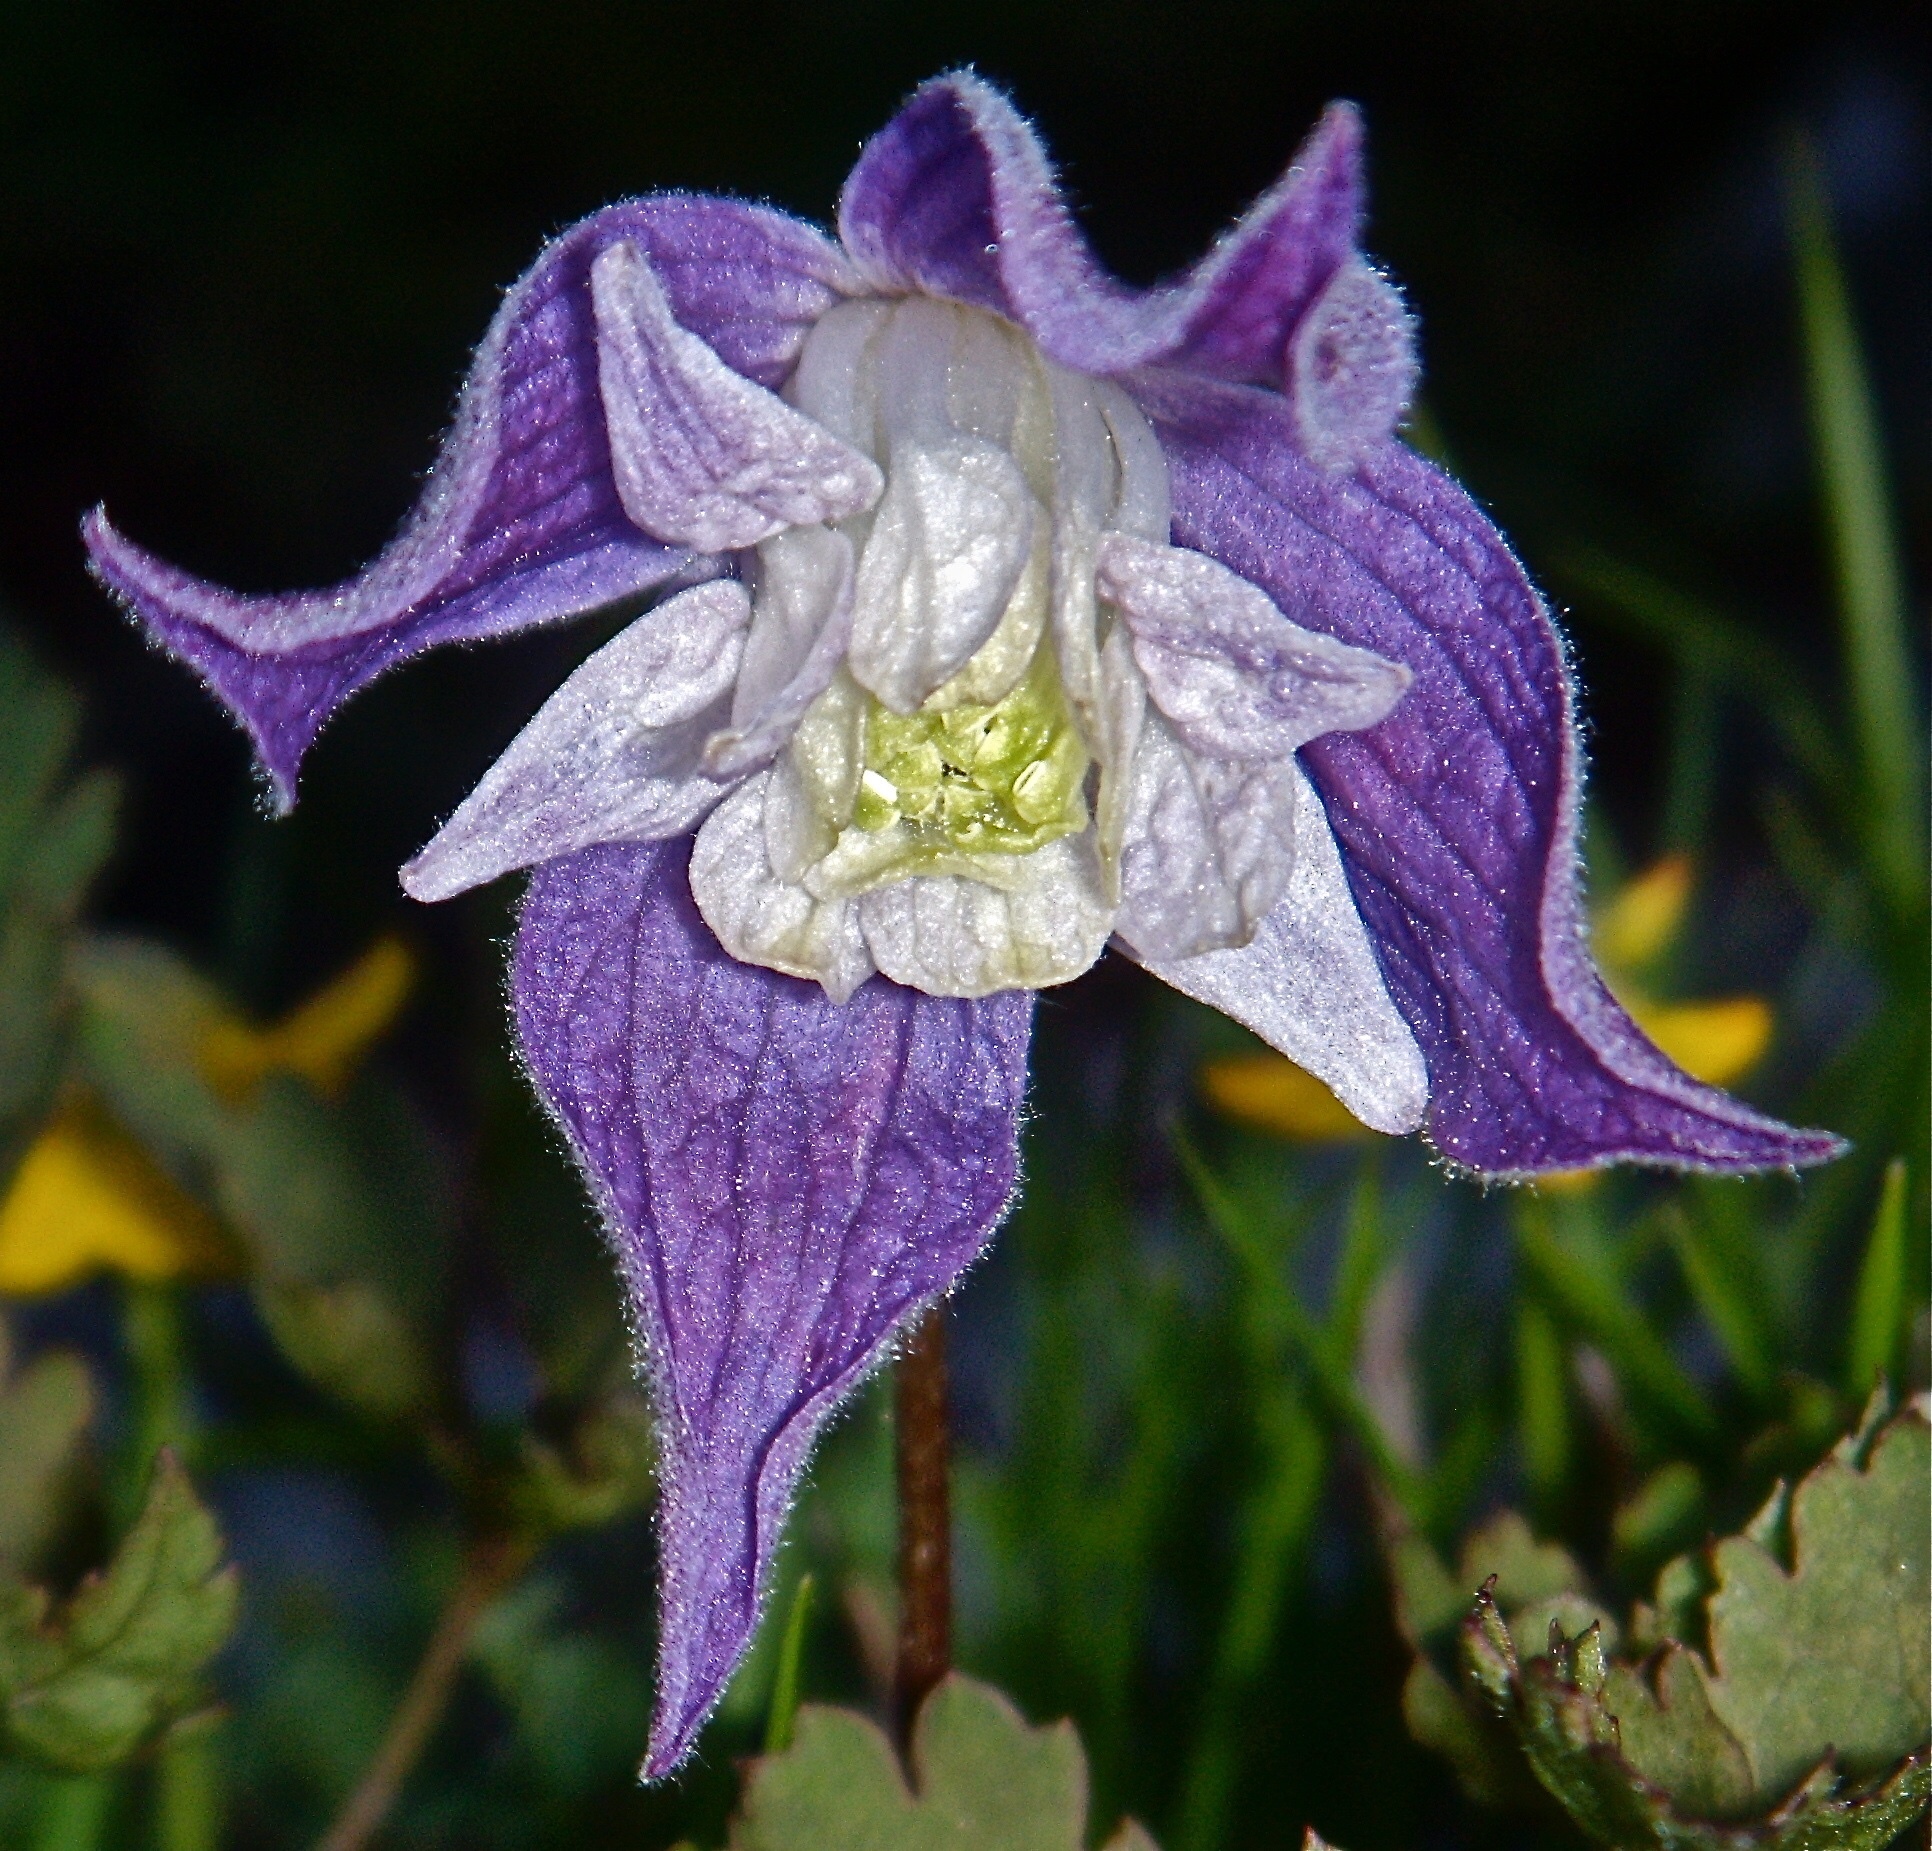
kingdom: Plantae
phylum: Tracheophyta
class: Magnoliopsida
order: Ranunculales
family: Ranunculaceae
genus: Clematis
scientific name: Clematis alpina
